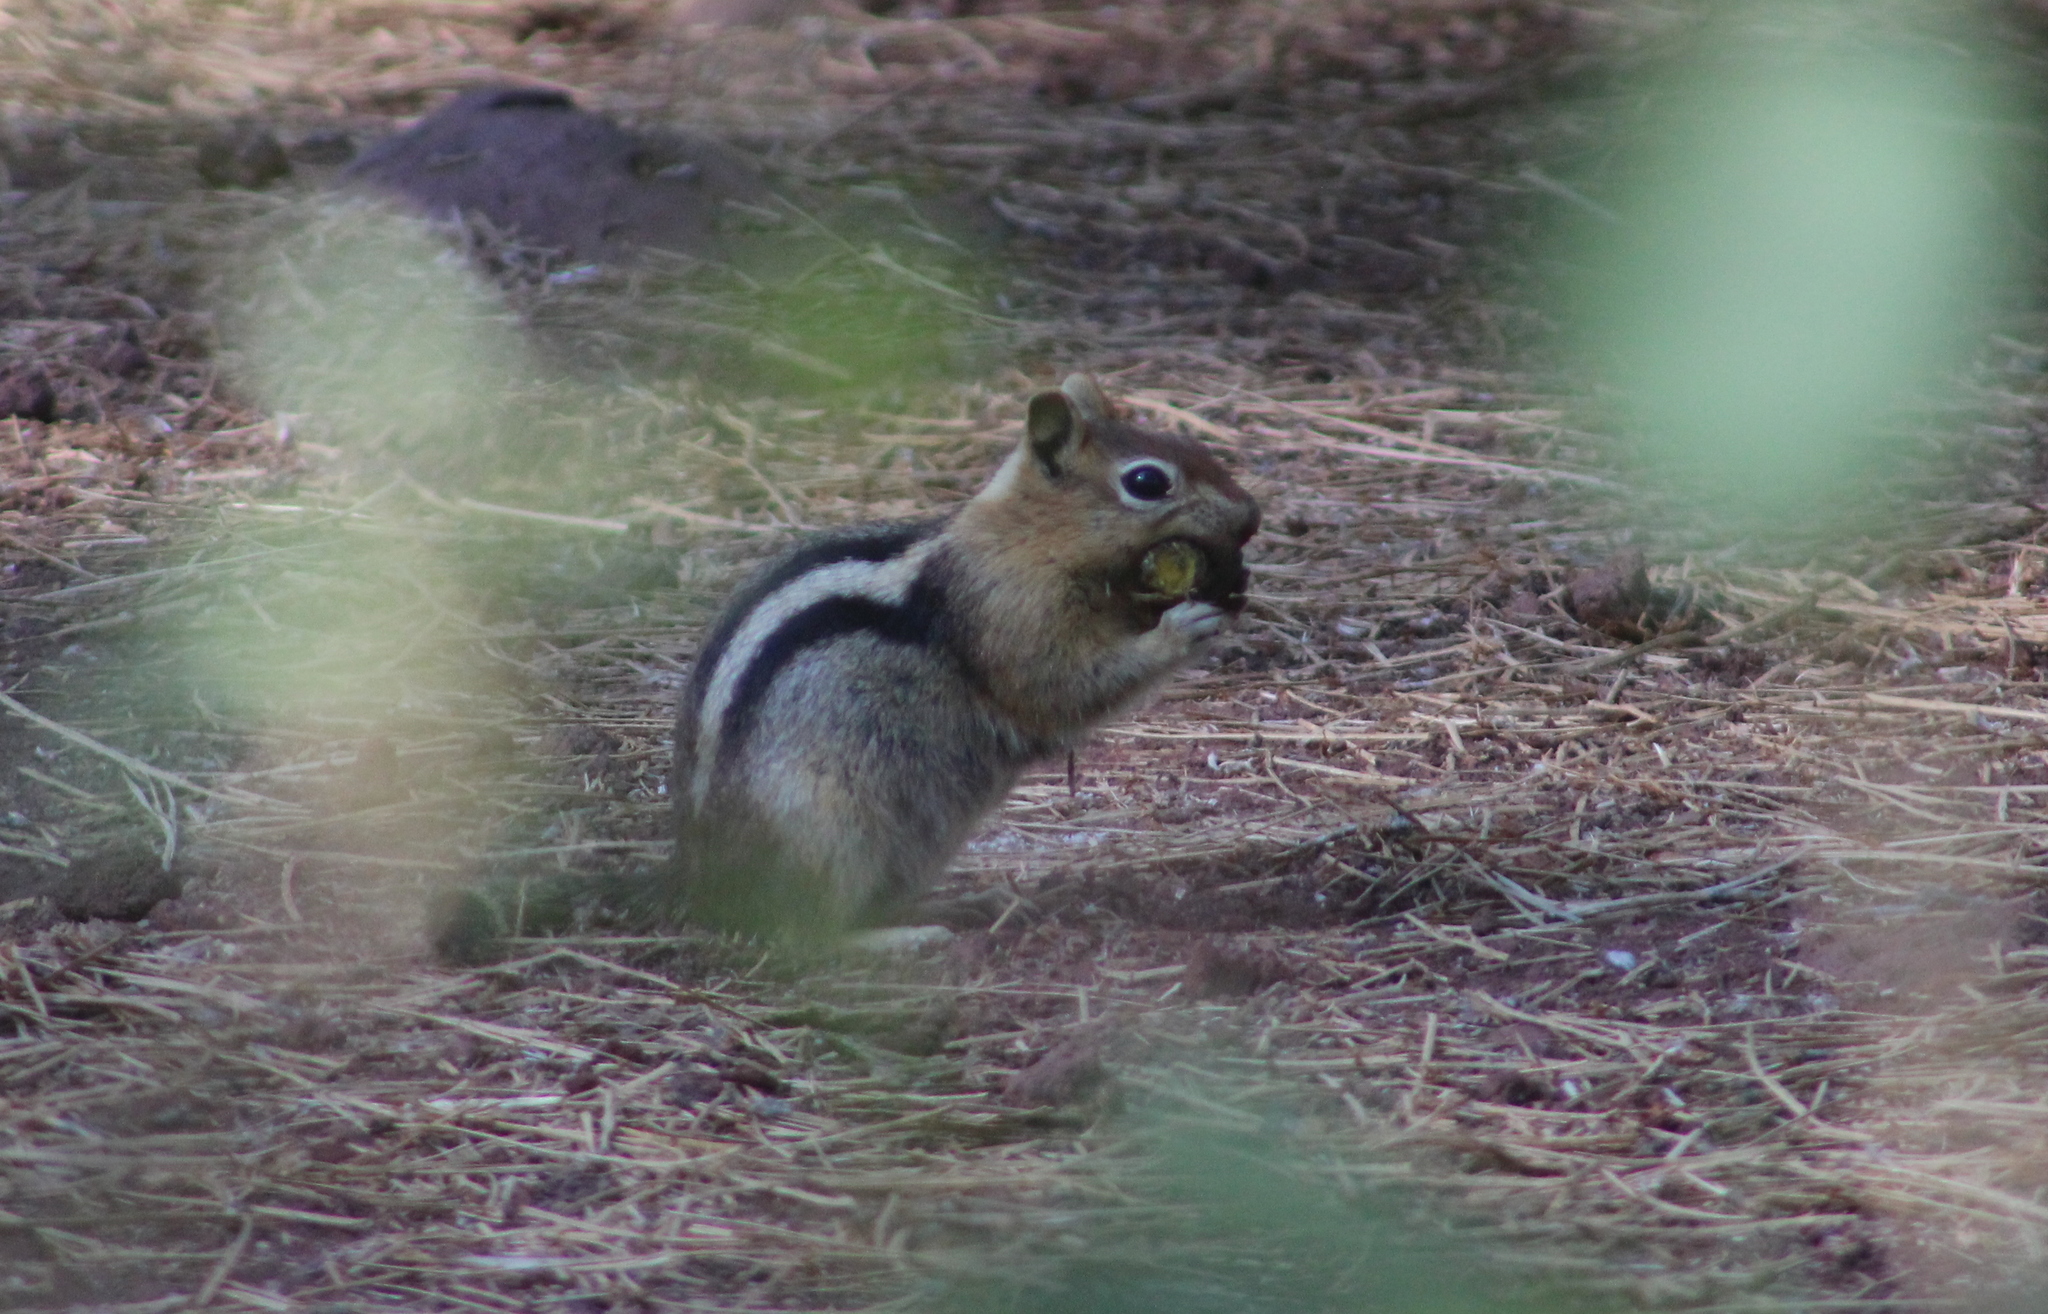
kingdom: Animalia
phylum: Chordata
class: Mammalia
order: Rodentia
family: Sciuridae
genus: Callospermophilus
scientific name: Callospermophilus lateralis
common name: Golden-mantled ground squirrel
